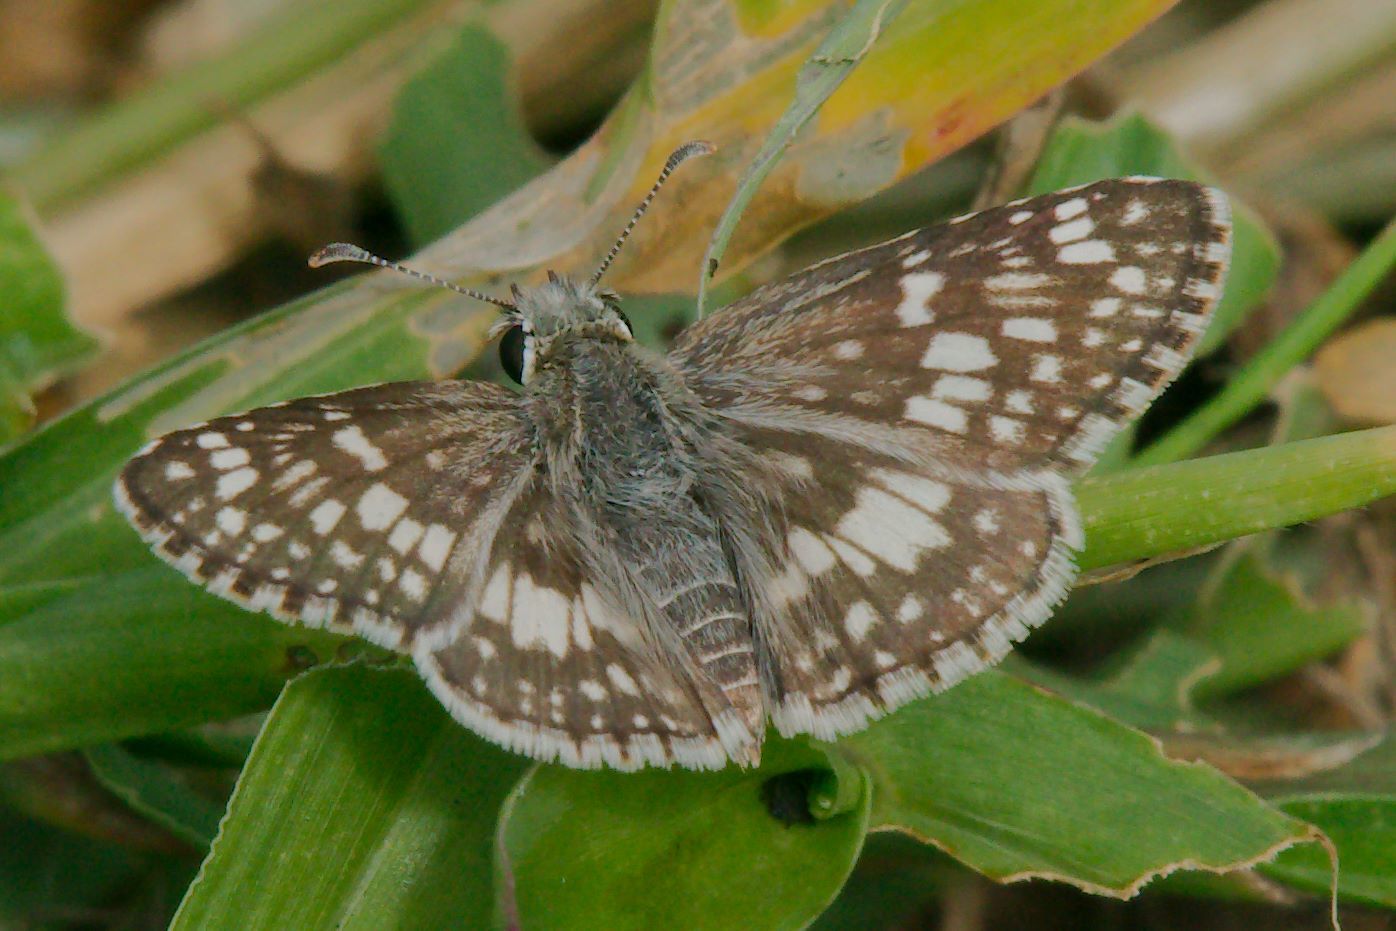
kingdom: Animalia
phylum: Arthropoda
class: Insecta
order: Lepidoptera
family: Hesperiidae
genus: Burnsius
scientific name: Burnsius albezens
